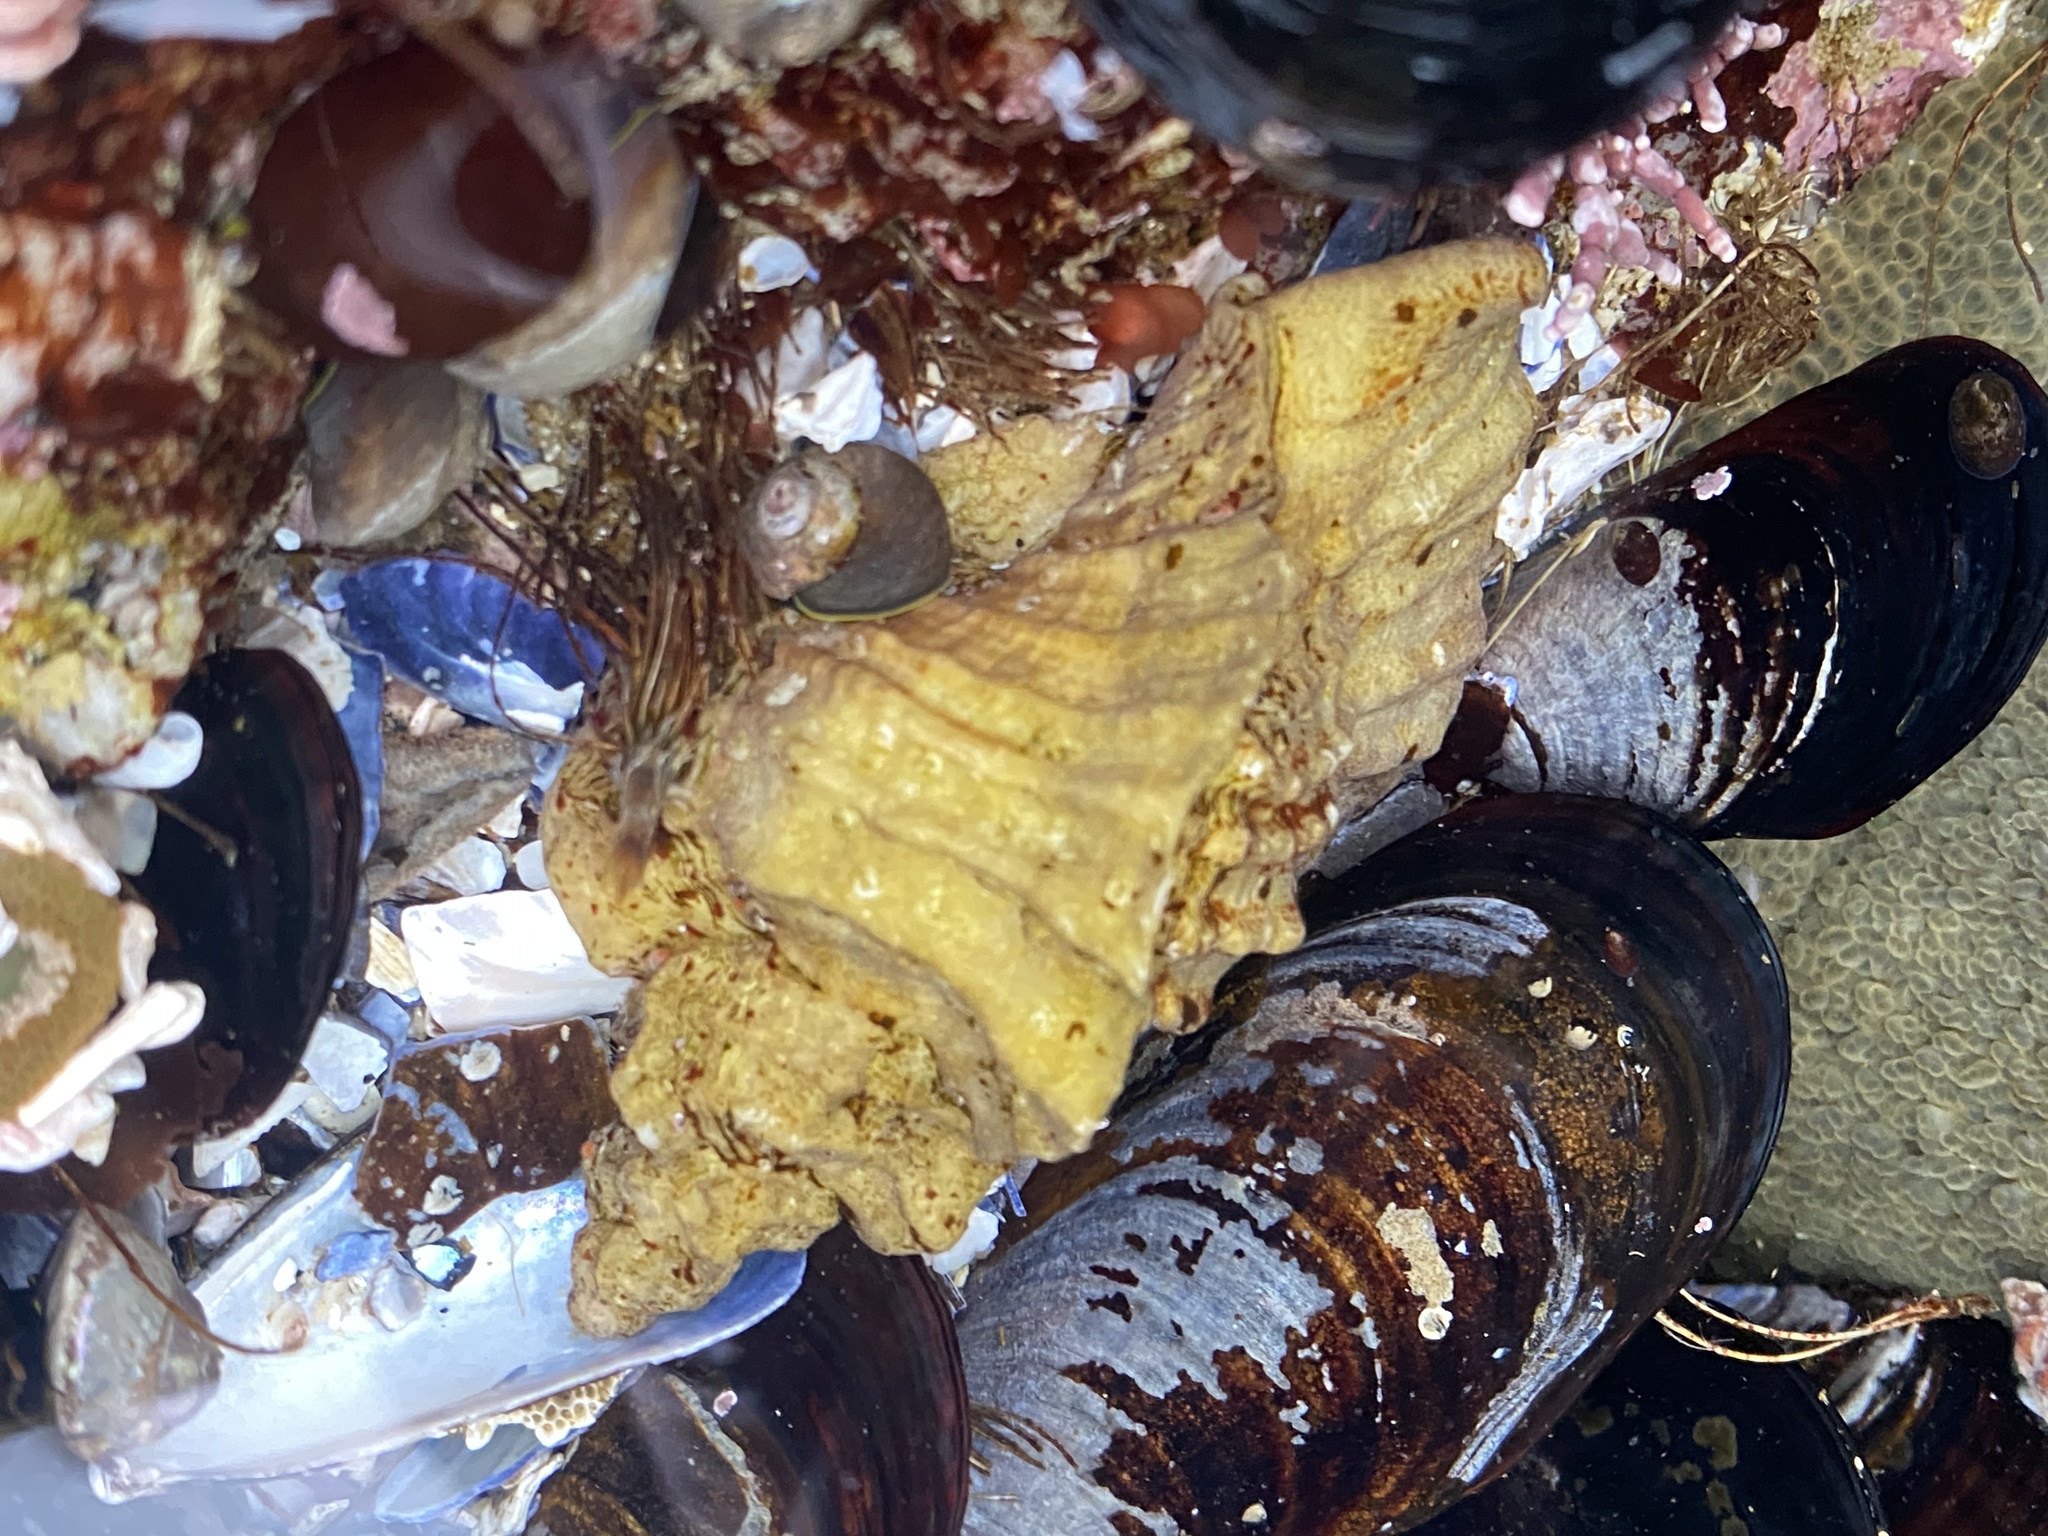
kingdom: Animalia
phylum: Mollusca
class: Gastropoda
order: Neogastropoda
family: Muricidae
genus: Ceratostoma
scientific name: Ceratostoma foliatum
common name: Foliate thorn purpura
